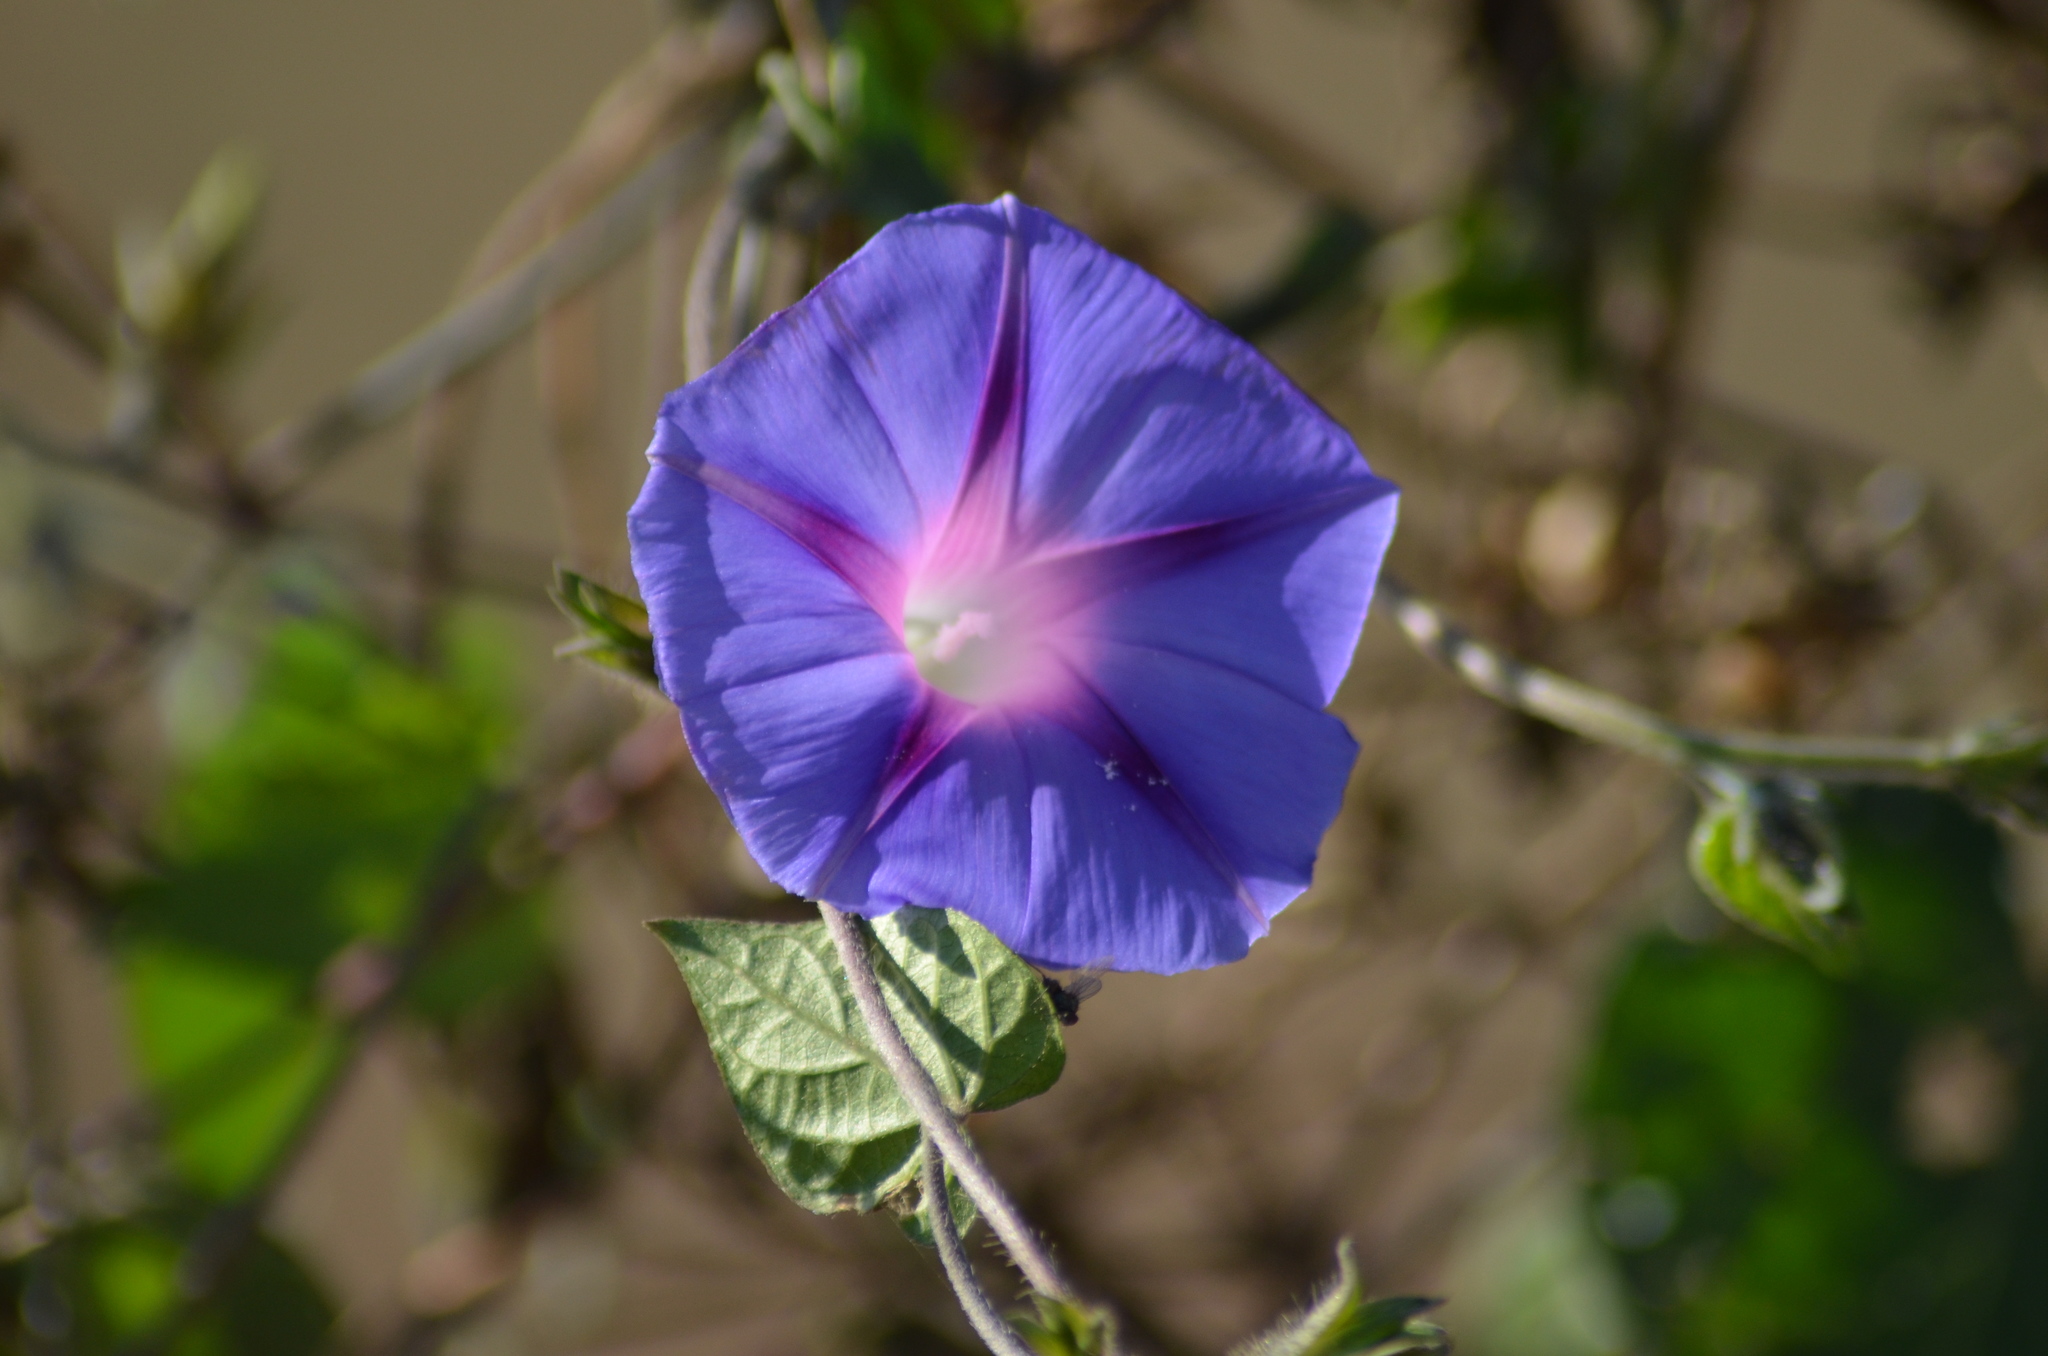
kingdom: Plantae
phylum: Tracheophyta
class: Magnoliopsida
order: Solanales
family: Convolvulaceae
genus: Ipomoea
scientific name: Ipomoea purpurea
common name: Common morning-glory
